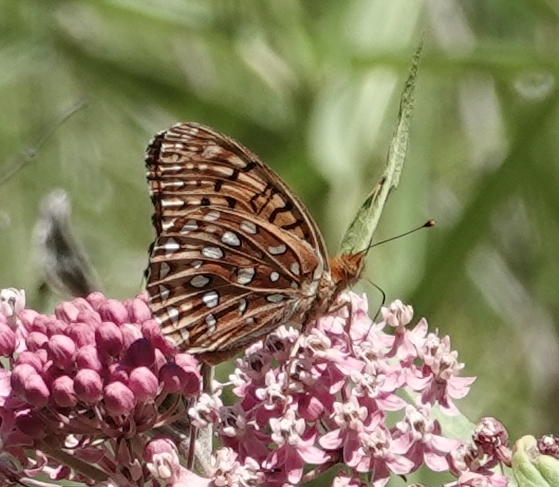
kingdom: Animalia
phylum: Arthropoda
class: Insecta
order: Lepidoptera
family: Nymphalidae
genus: Speyeria
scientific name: Speyeria aphrodite
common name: Aphrodite friitllary
